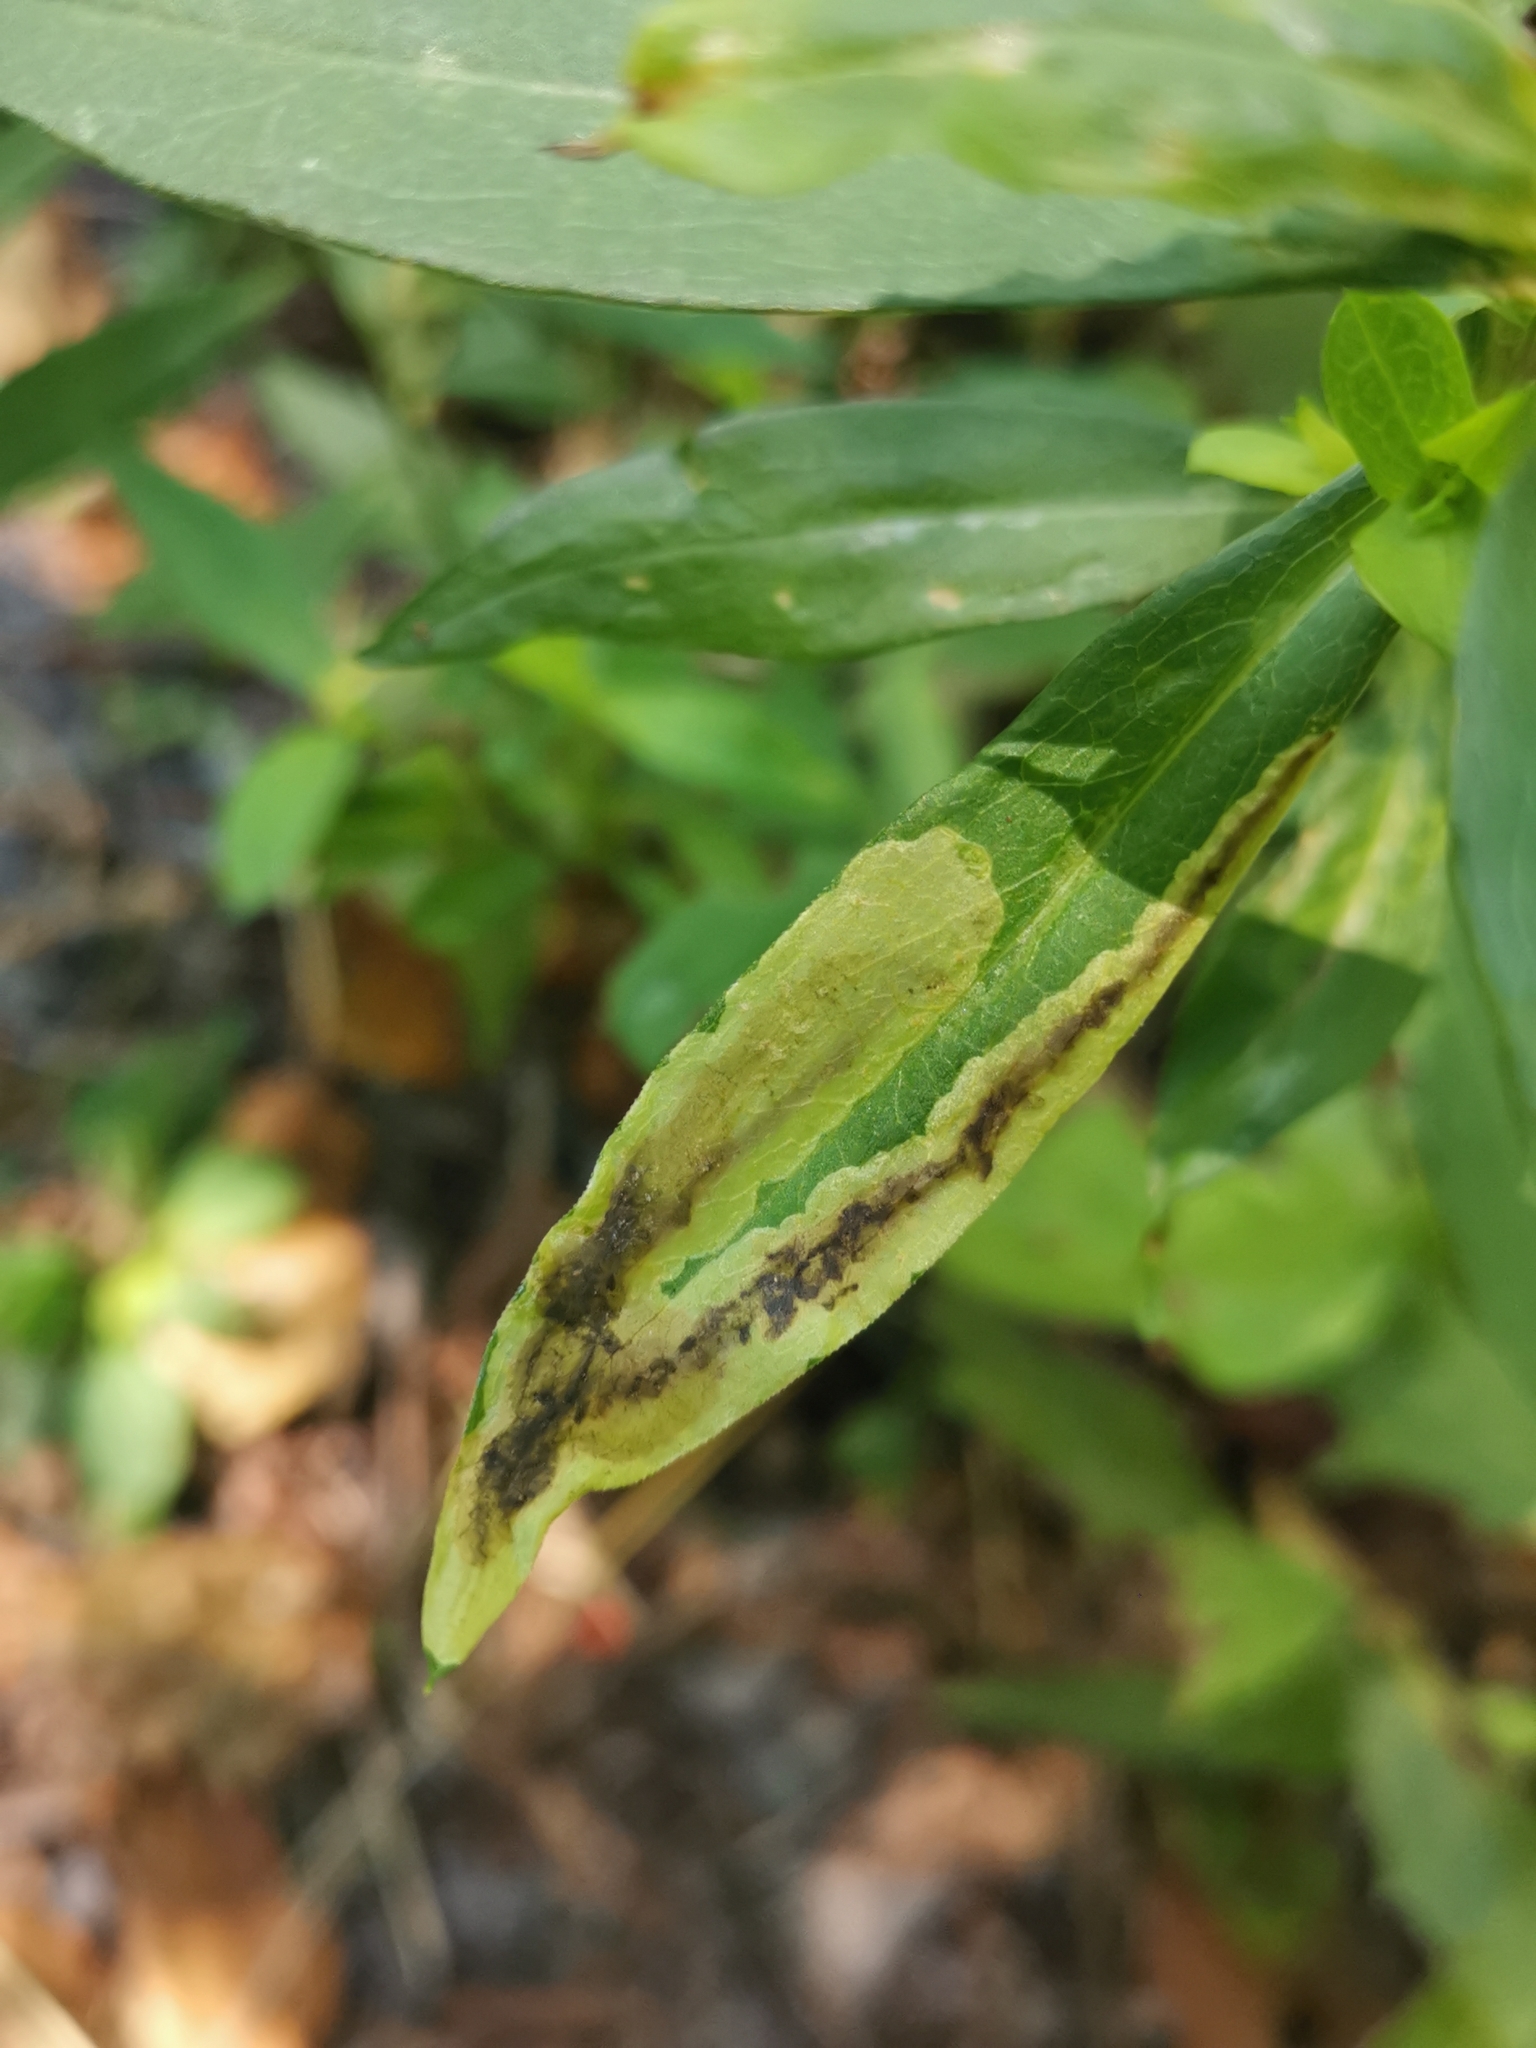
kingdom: Animalia
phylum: Arthropoda
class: Insecta
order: Diptera
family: Agromyzidae
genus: Nemorimyza
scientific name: Nemorimyza posticata
